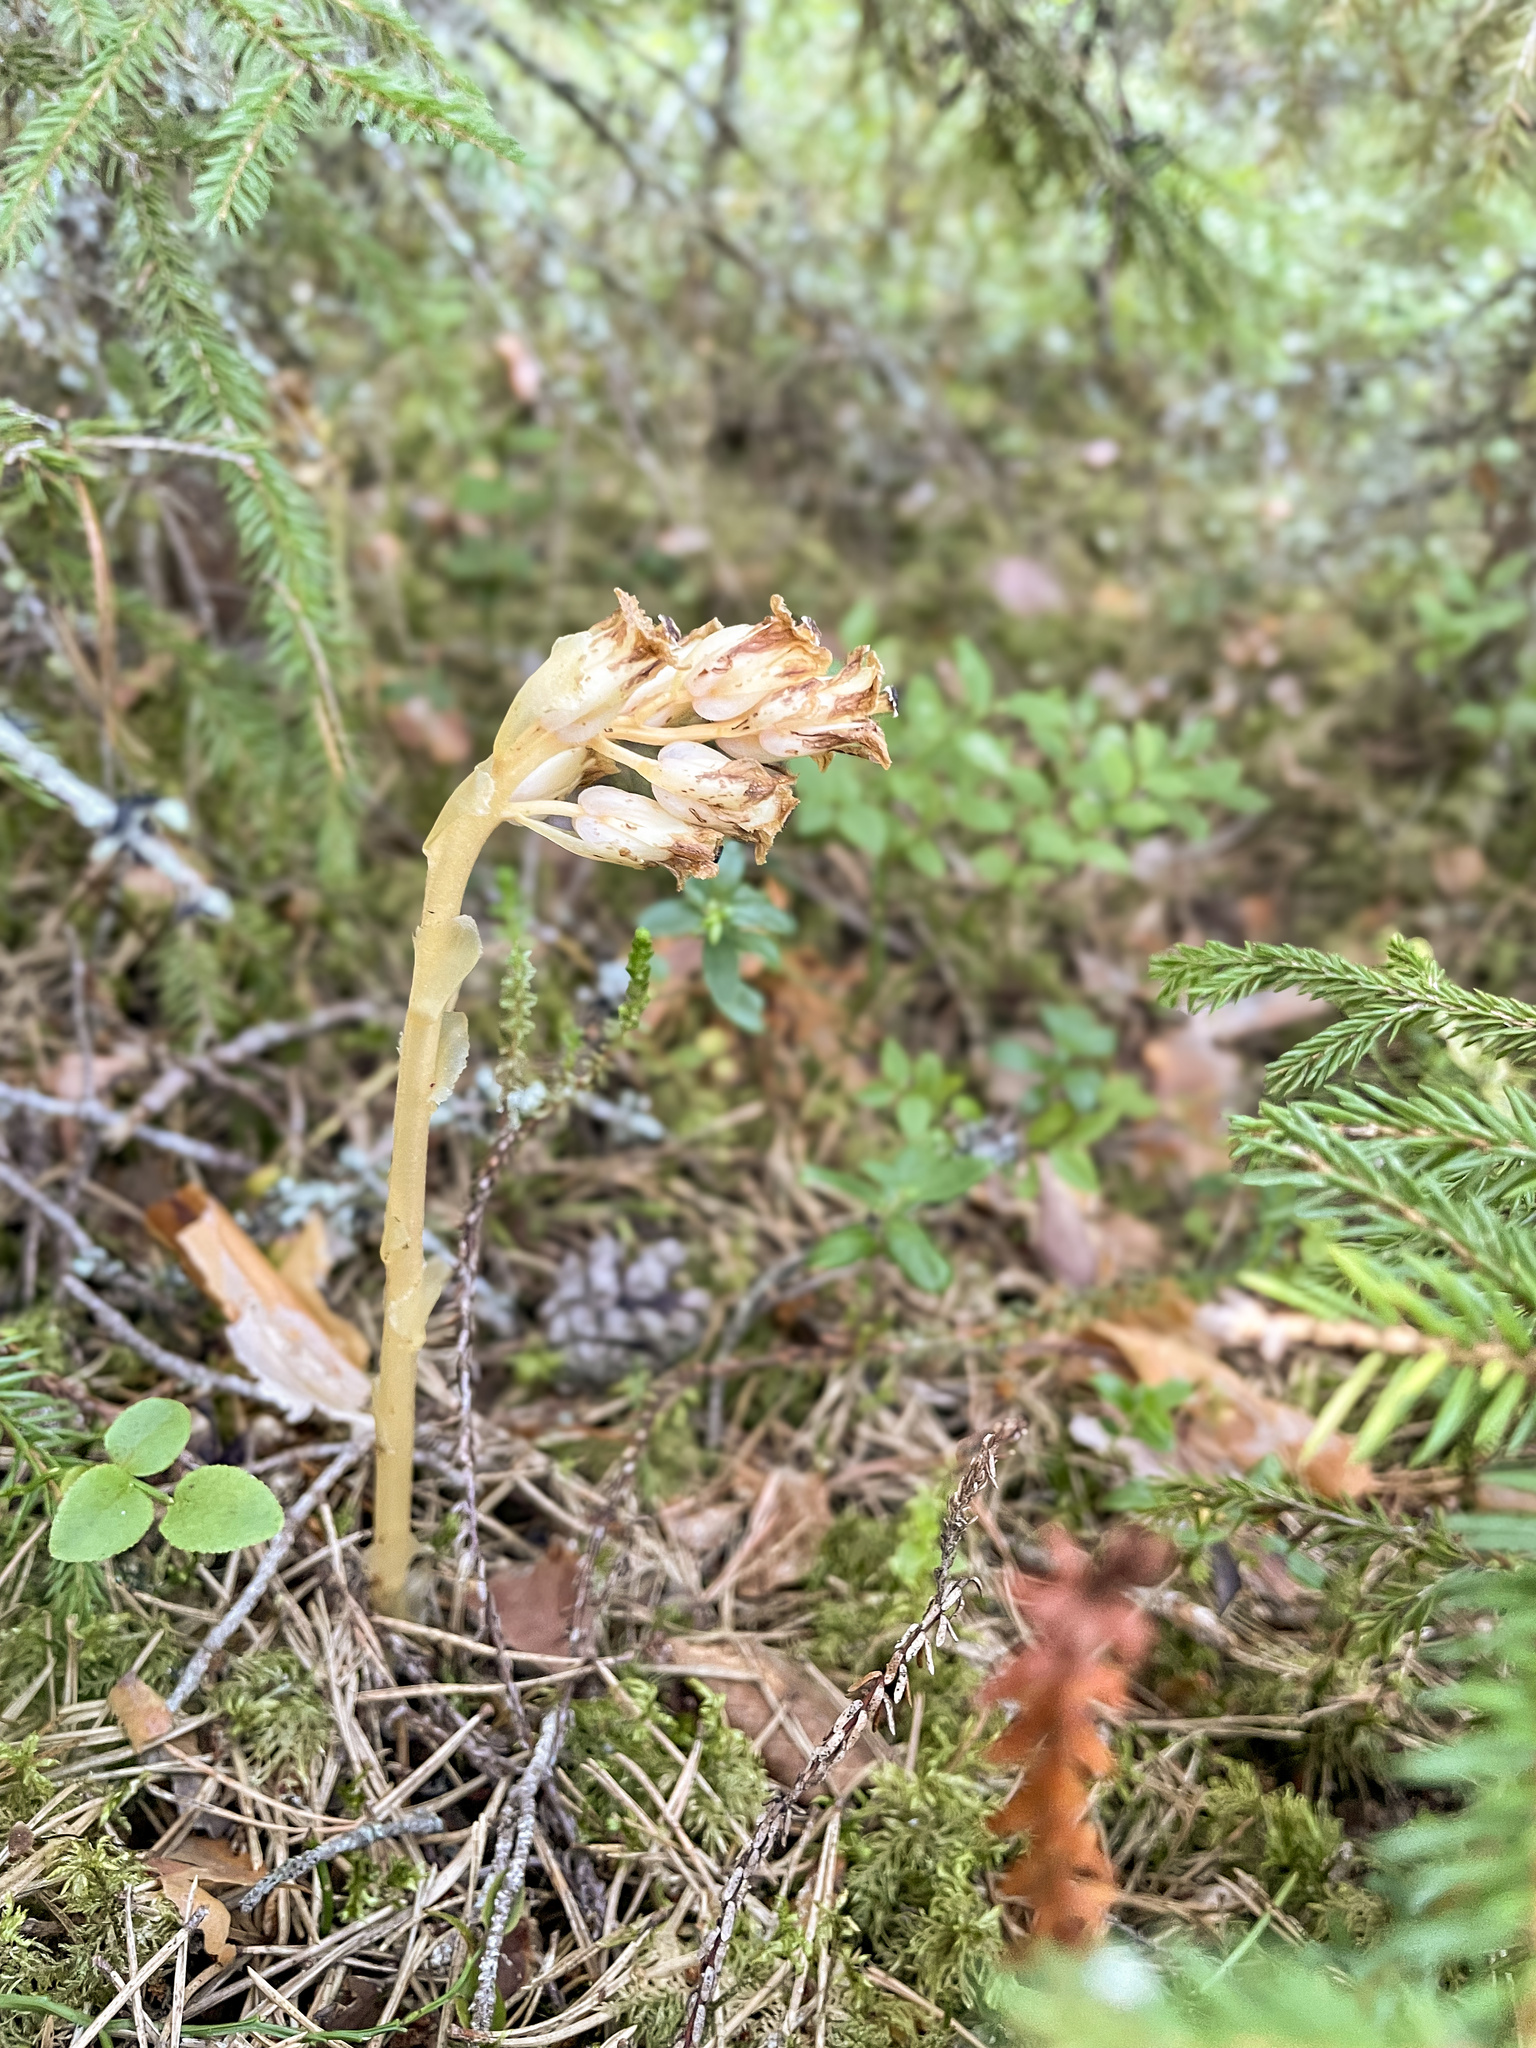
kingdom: Plantae
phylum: Tracheophyta
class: Magnoliopsida
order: Ericales
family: Ericaceae
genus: Hypopitys
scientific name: Hypopitys monotropa
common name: Yellow bird's-nest
